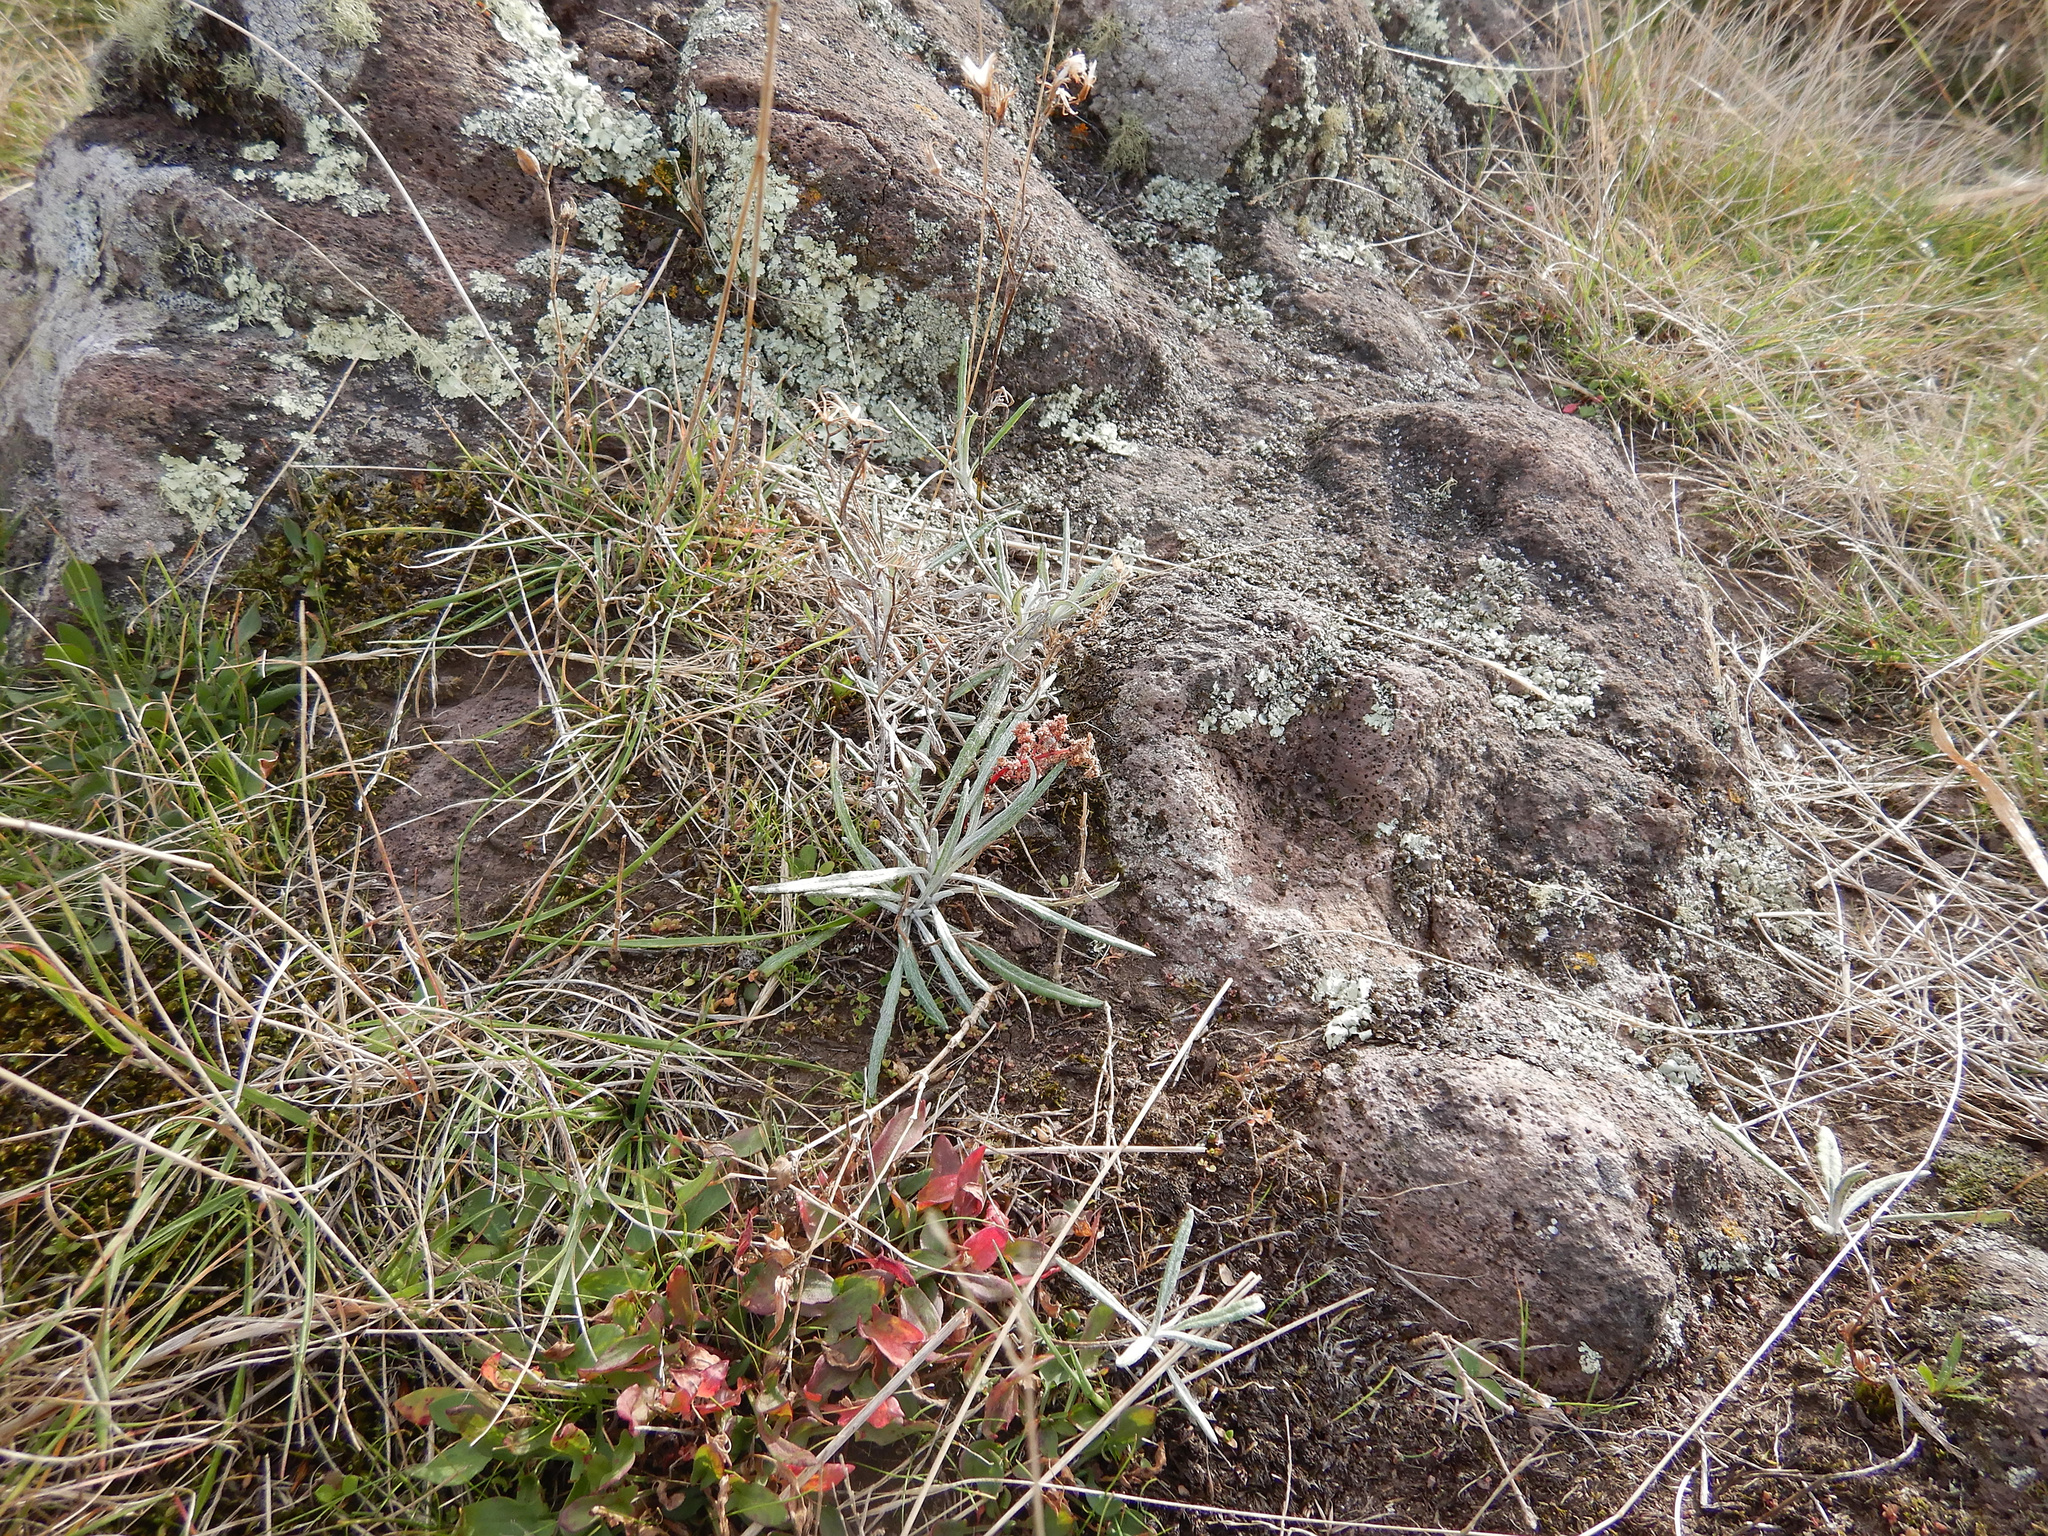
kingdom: Plantae
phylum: Tracheophyta
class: Magnoliopsida
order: Asterales
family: Asteraceae
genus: Senecio
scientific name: Senecio quadridentatus
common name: Cotton fireweed
